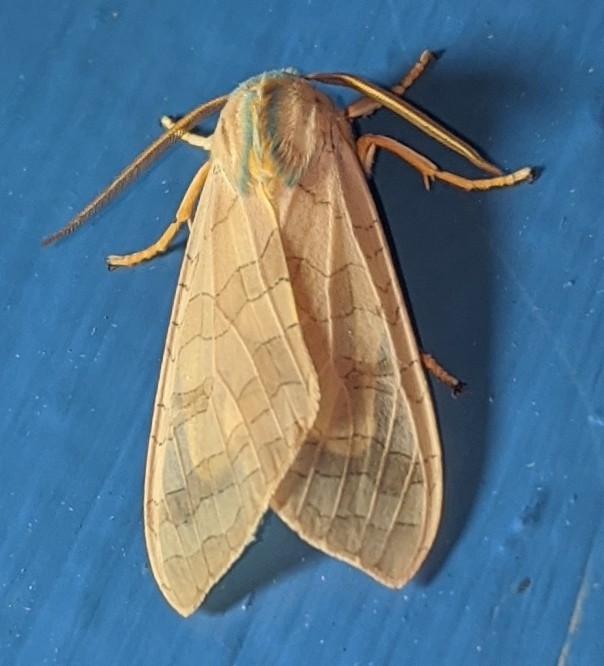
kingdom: Animalia
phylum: Arthropoda
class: Insecta
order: Lepidoptera
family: Erebidae
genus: Halysidota
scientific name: Halysidota tessellaris
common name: Banded tussock moth
